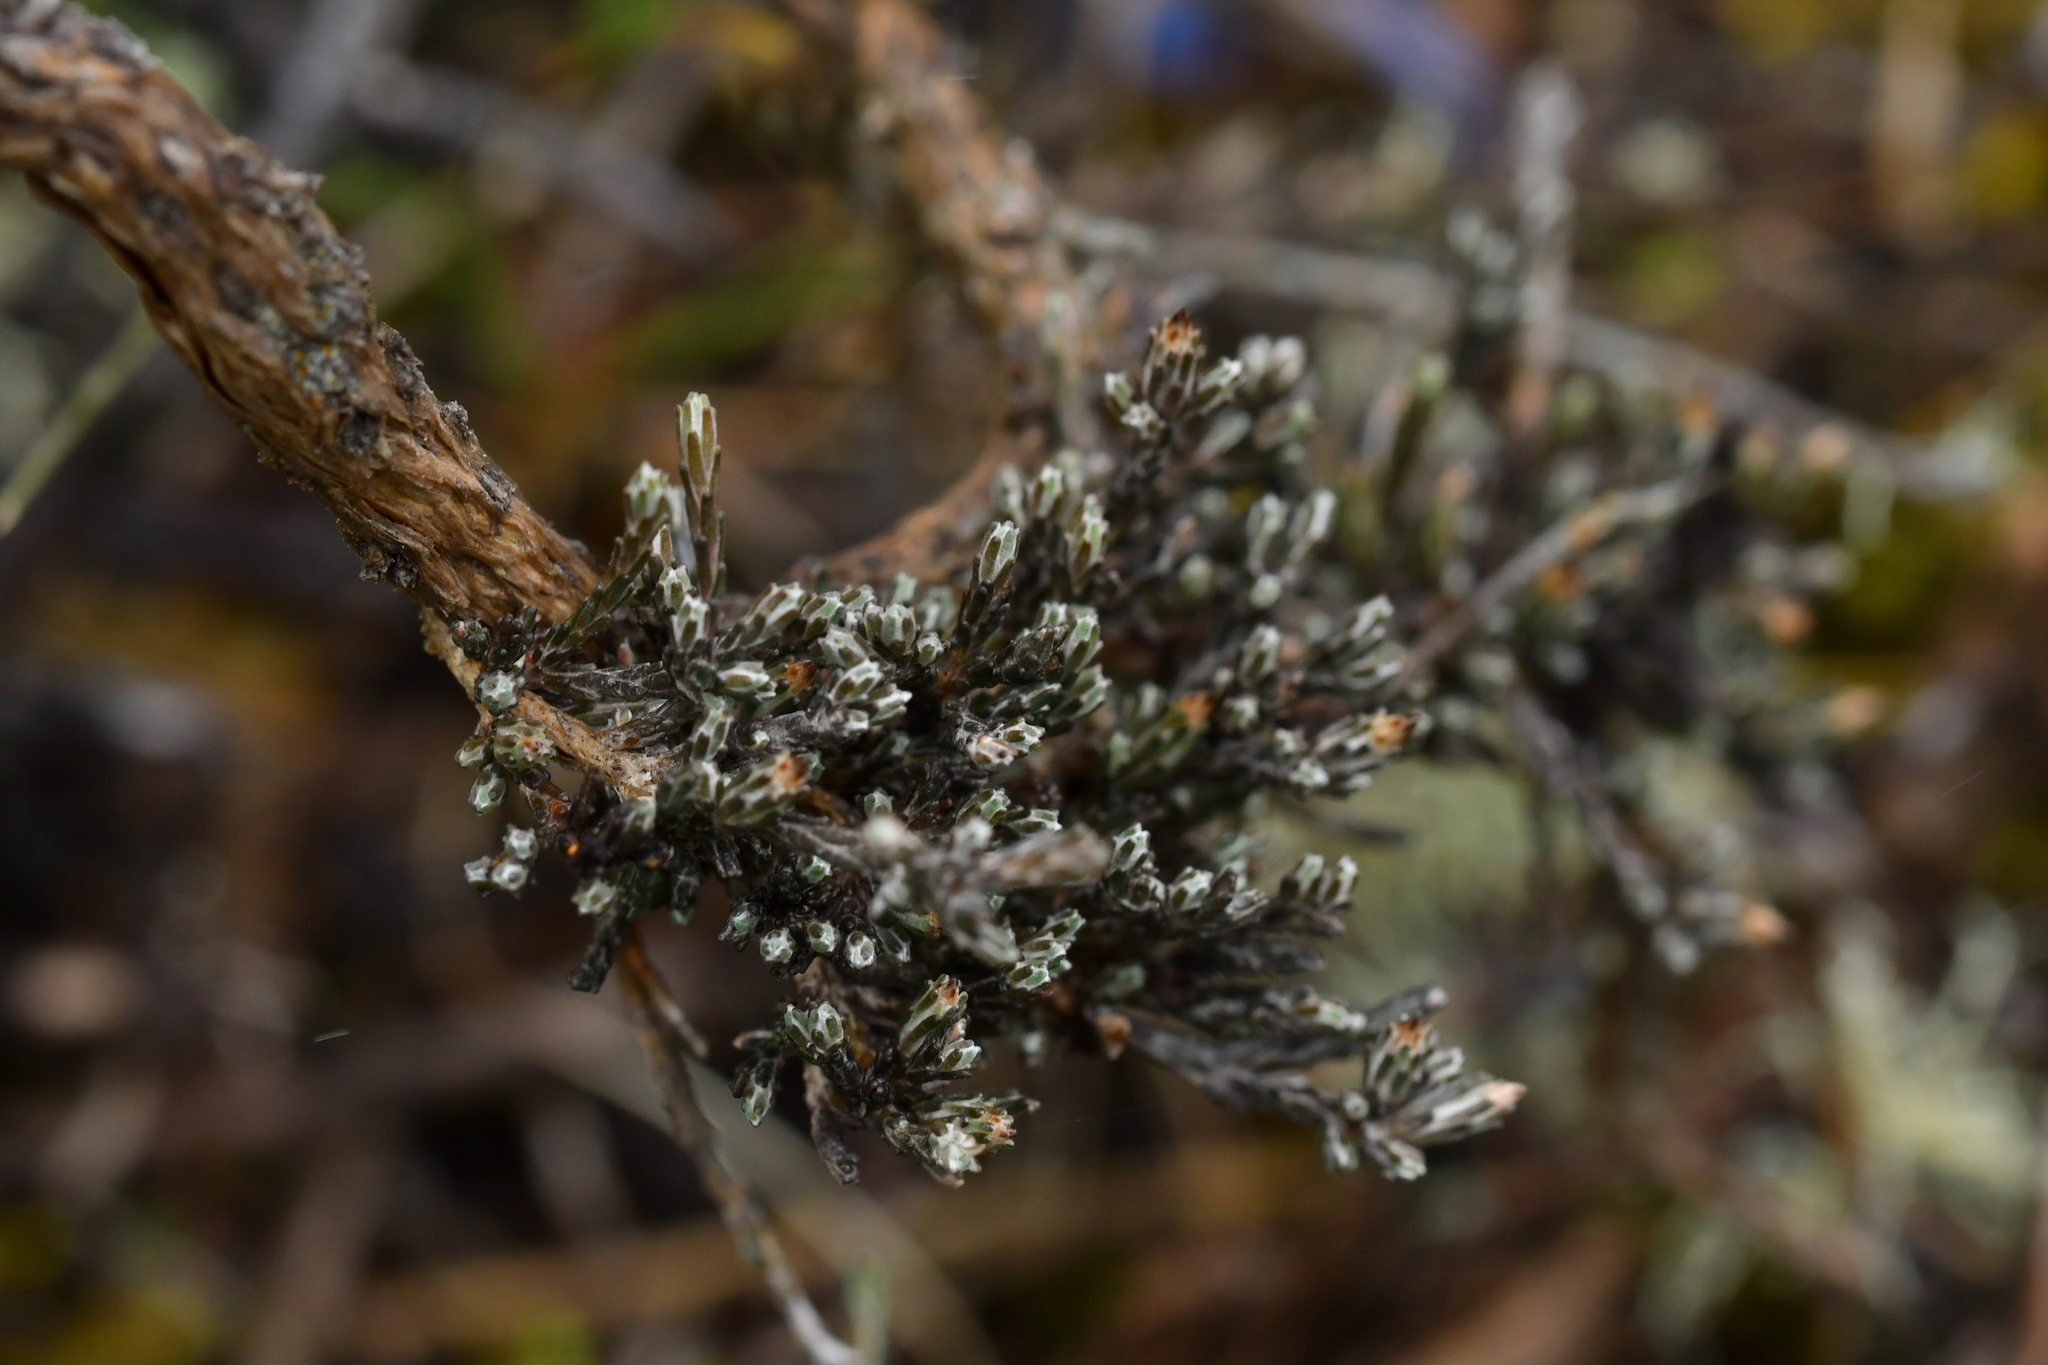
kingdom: Plantae
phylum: Tracheophyta
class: Magnoliopsida
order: Asterales
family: Asteraceae
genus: Ozothamnus
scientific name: Ozothamnus depressus
